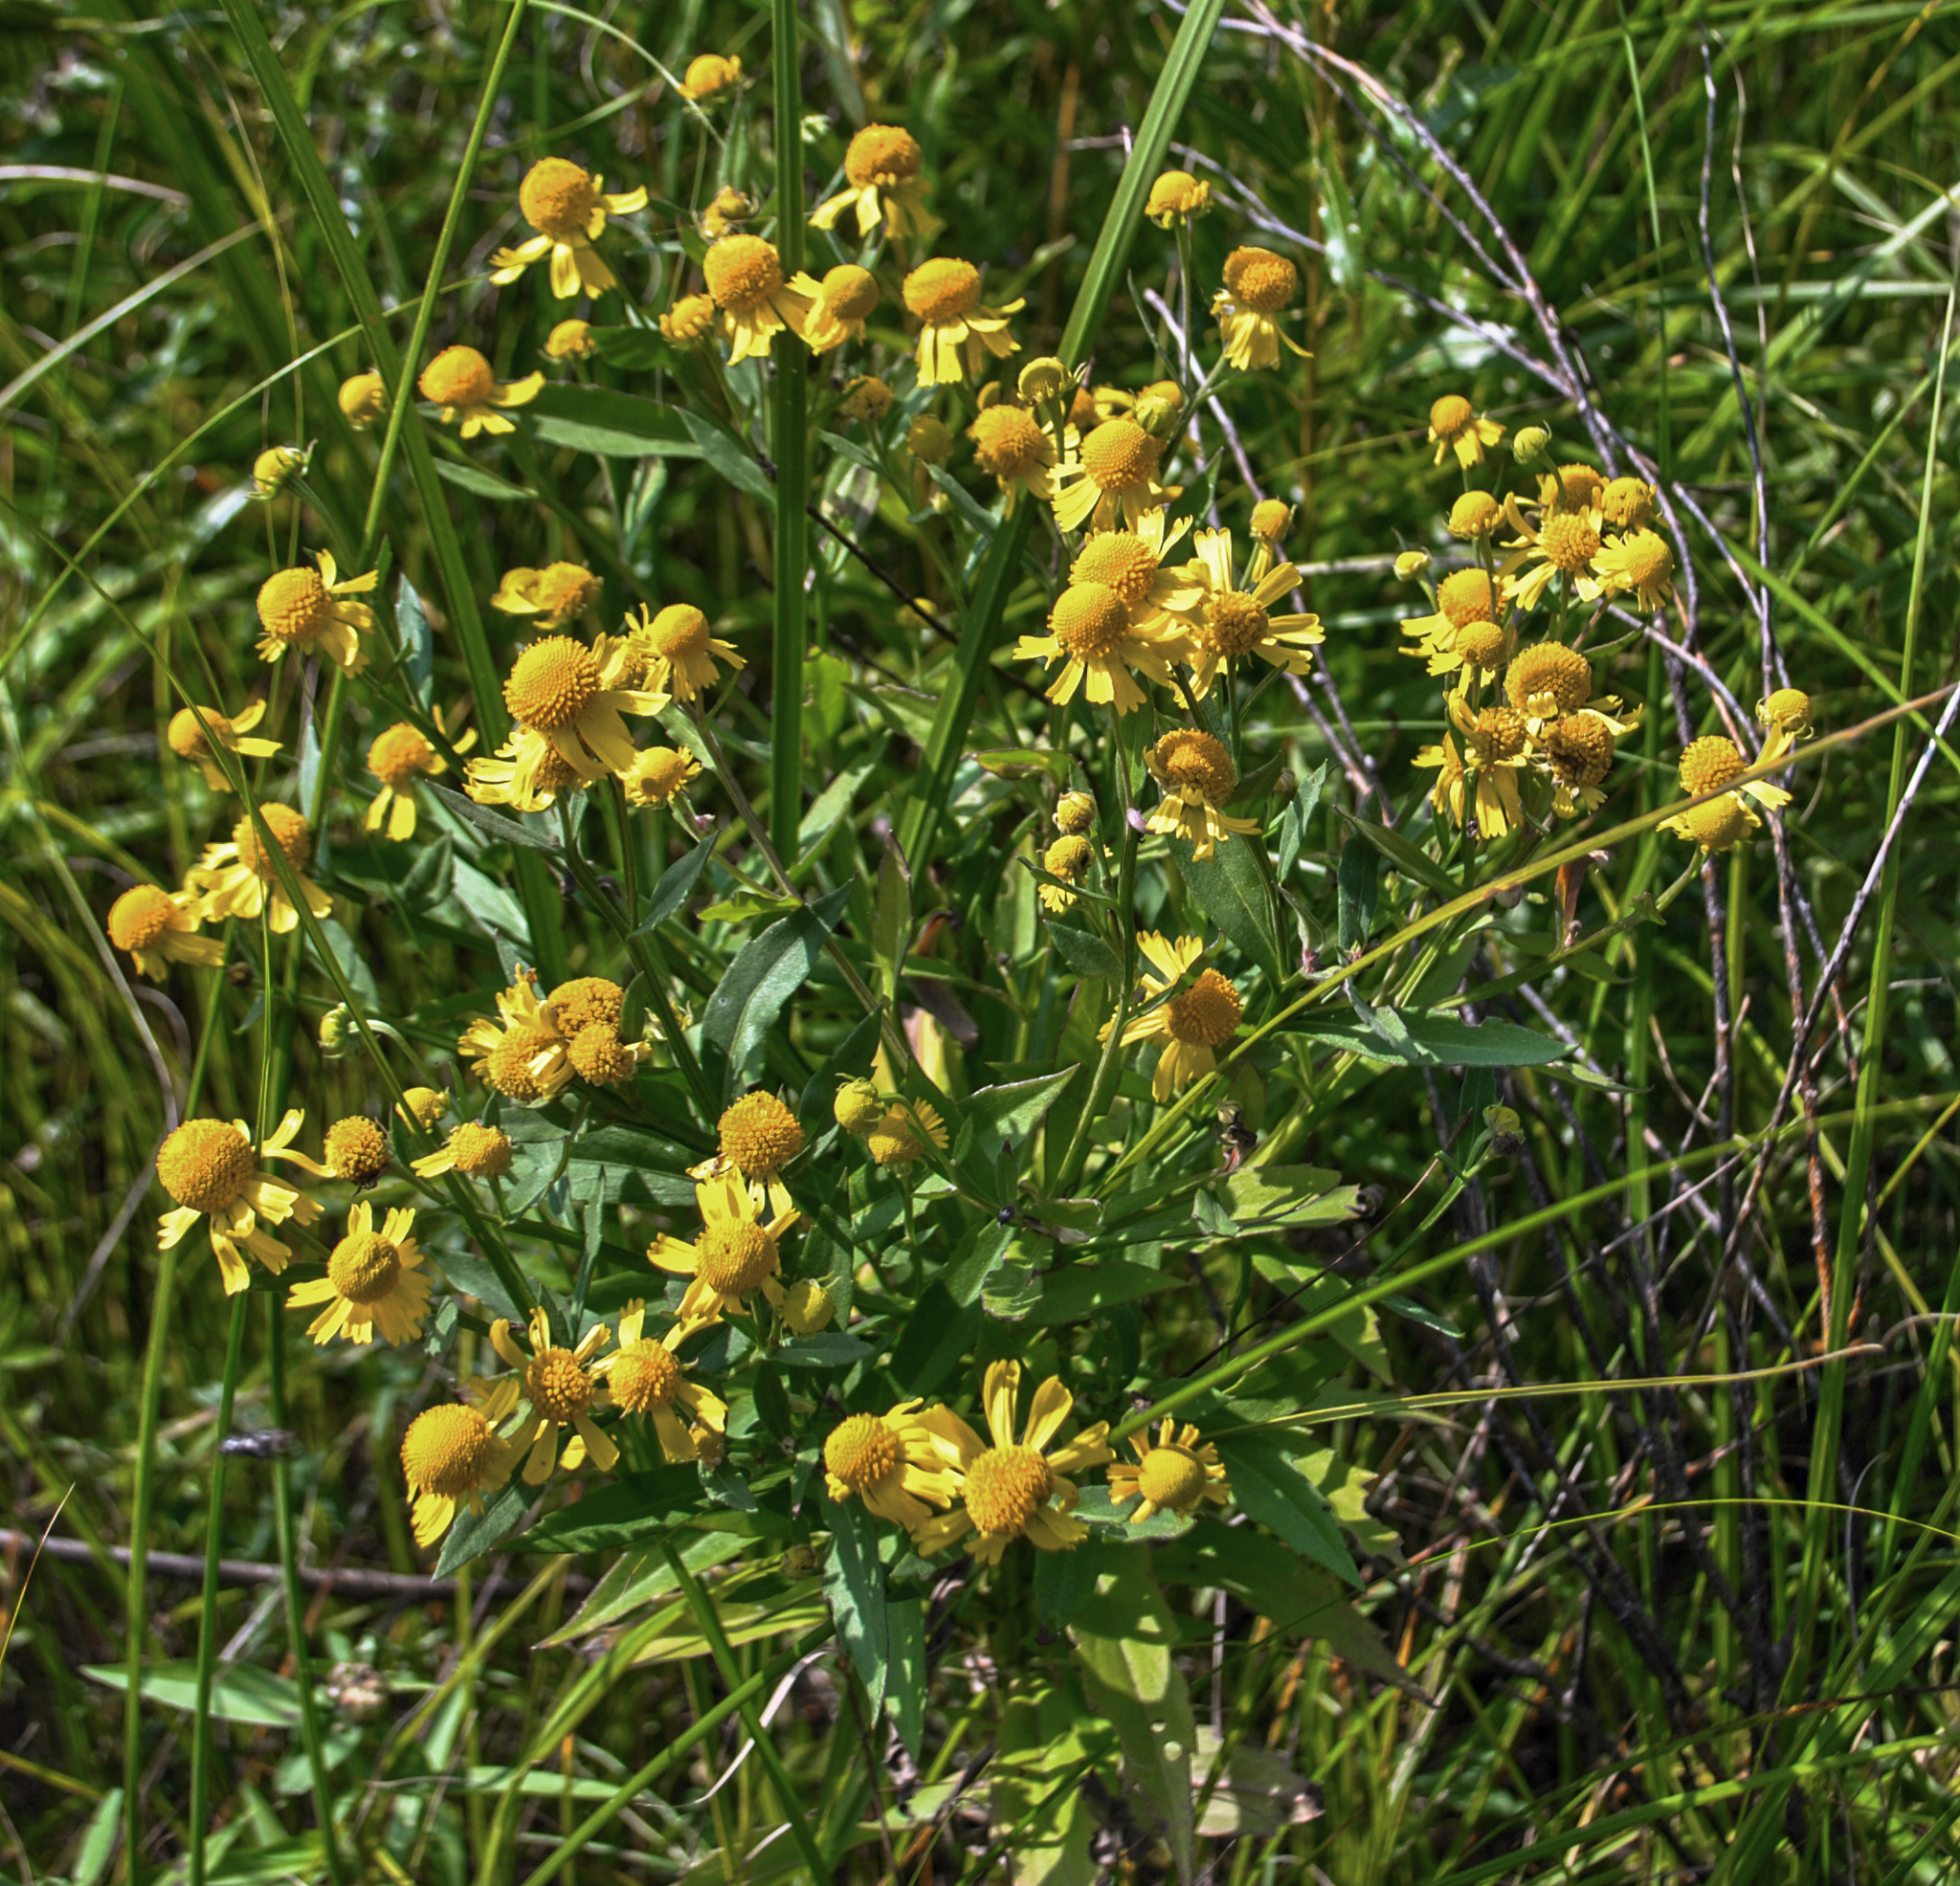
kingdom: Plantae
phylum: Tracheophyta
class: Magnoliopsida
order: Asterales
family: Asteraceae
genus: Helenium
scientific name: Helenium autumnale
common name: Sneezeweed
